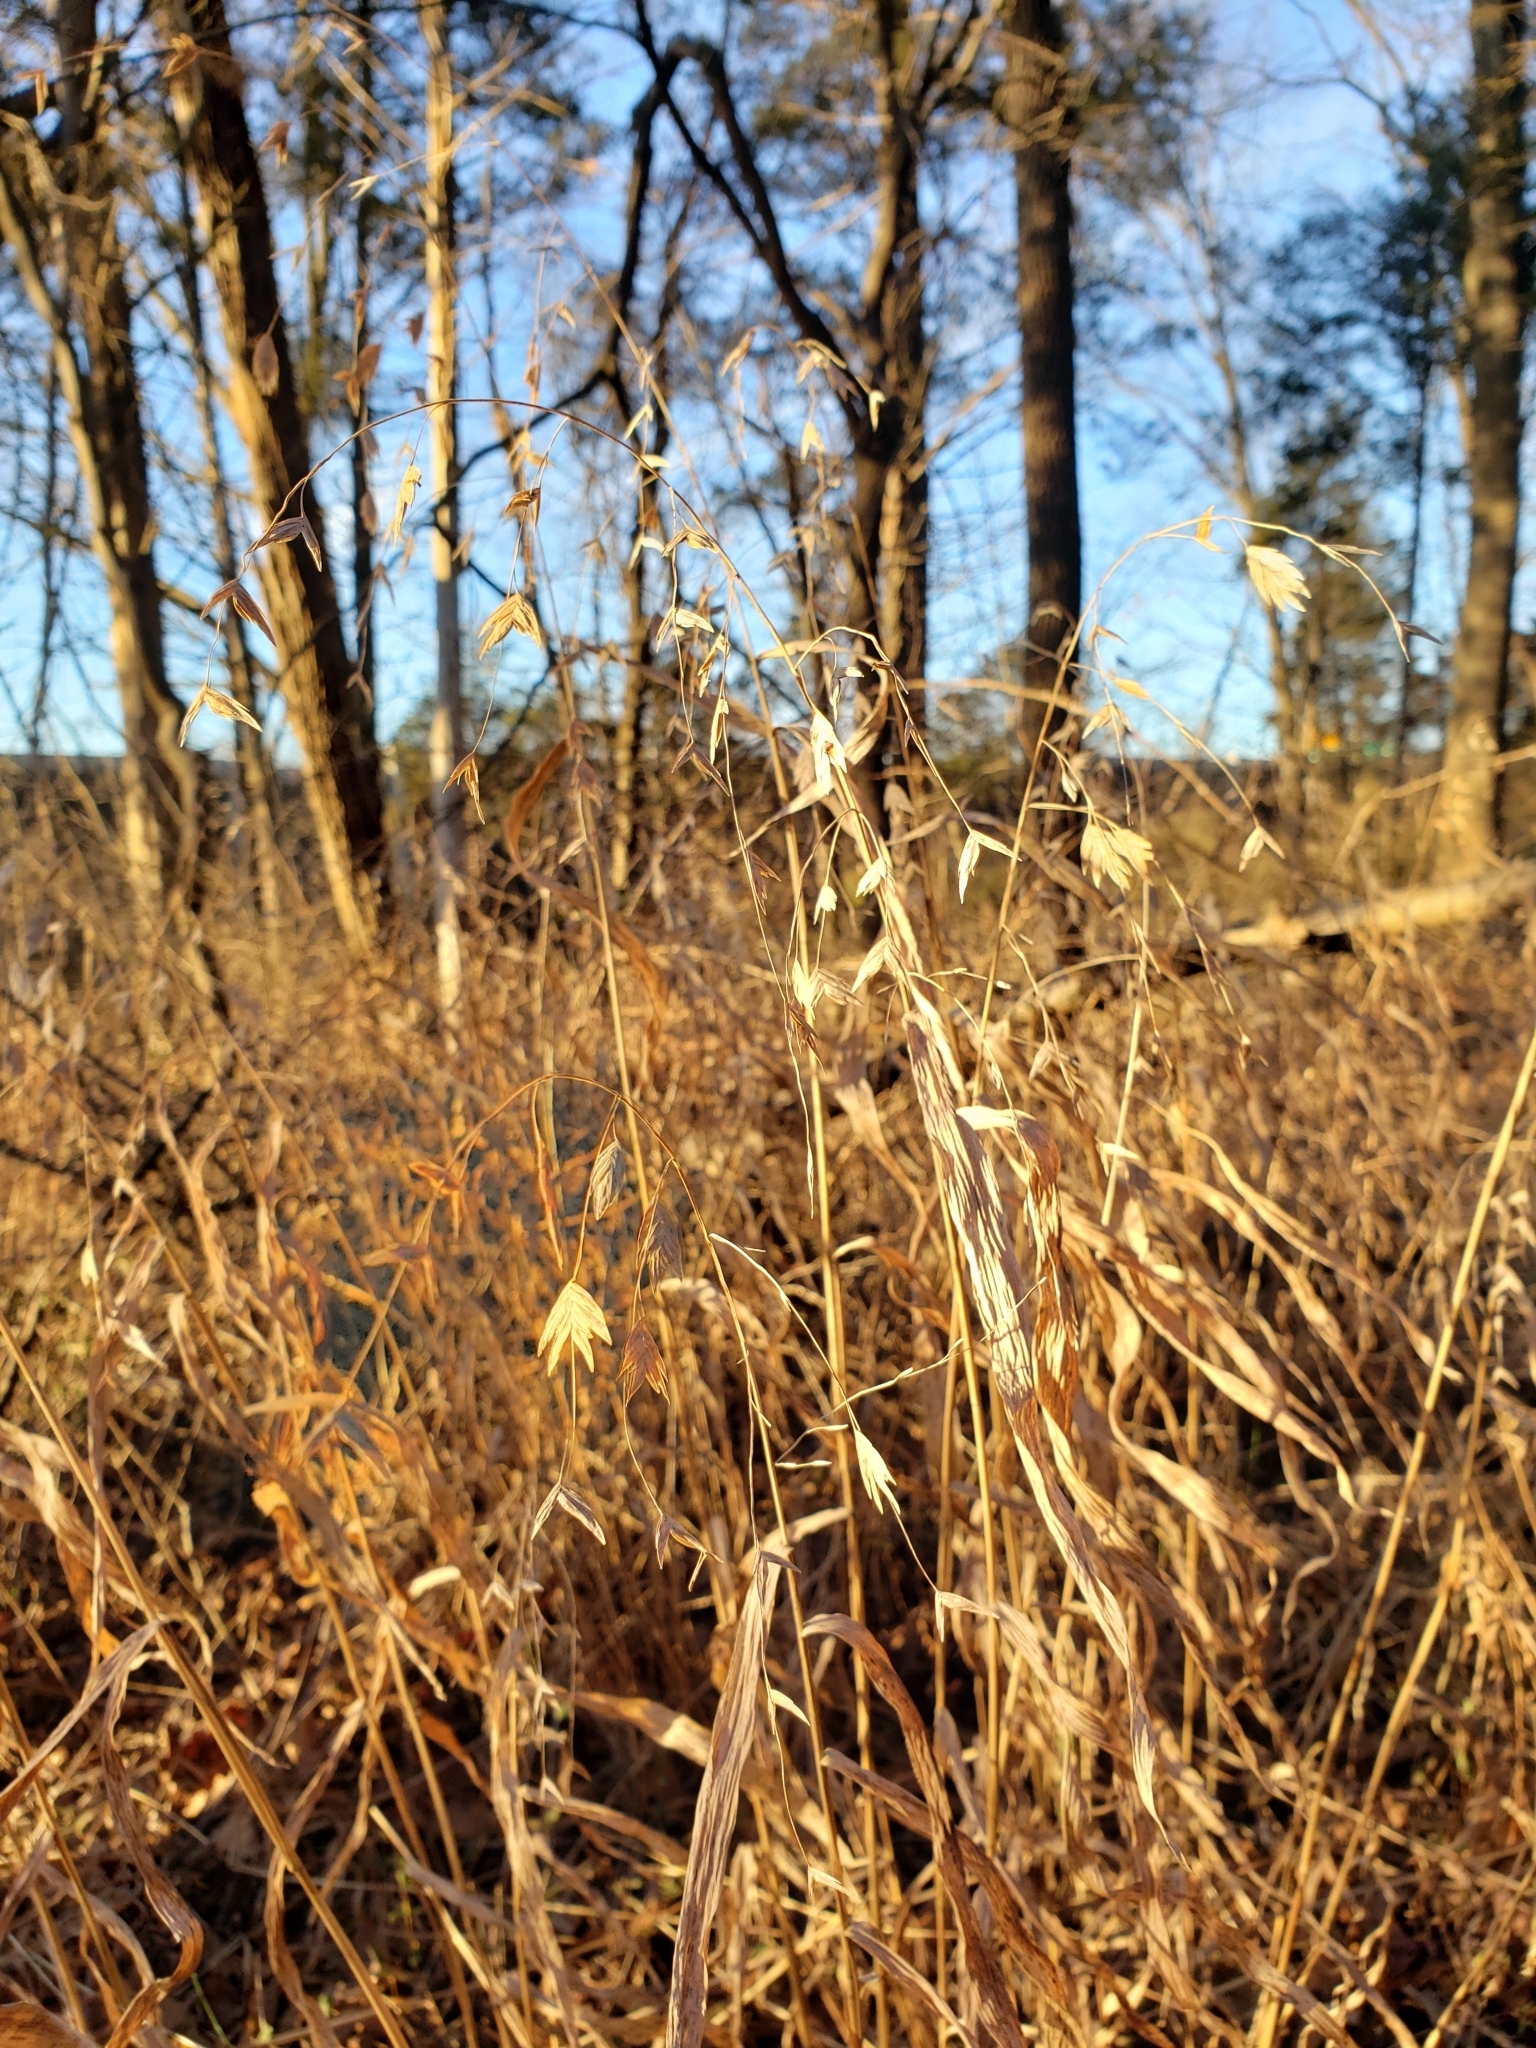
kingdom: Plantae
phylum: Tracheophyta
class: Liliopsida
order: Poales
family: Poaceae
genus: Chasmanthium
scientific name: Chasmanthium latifolium
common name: Broad-leaved chasmanthium
